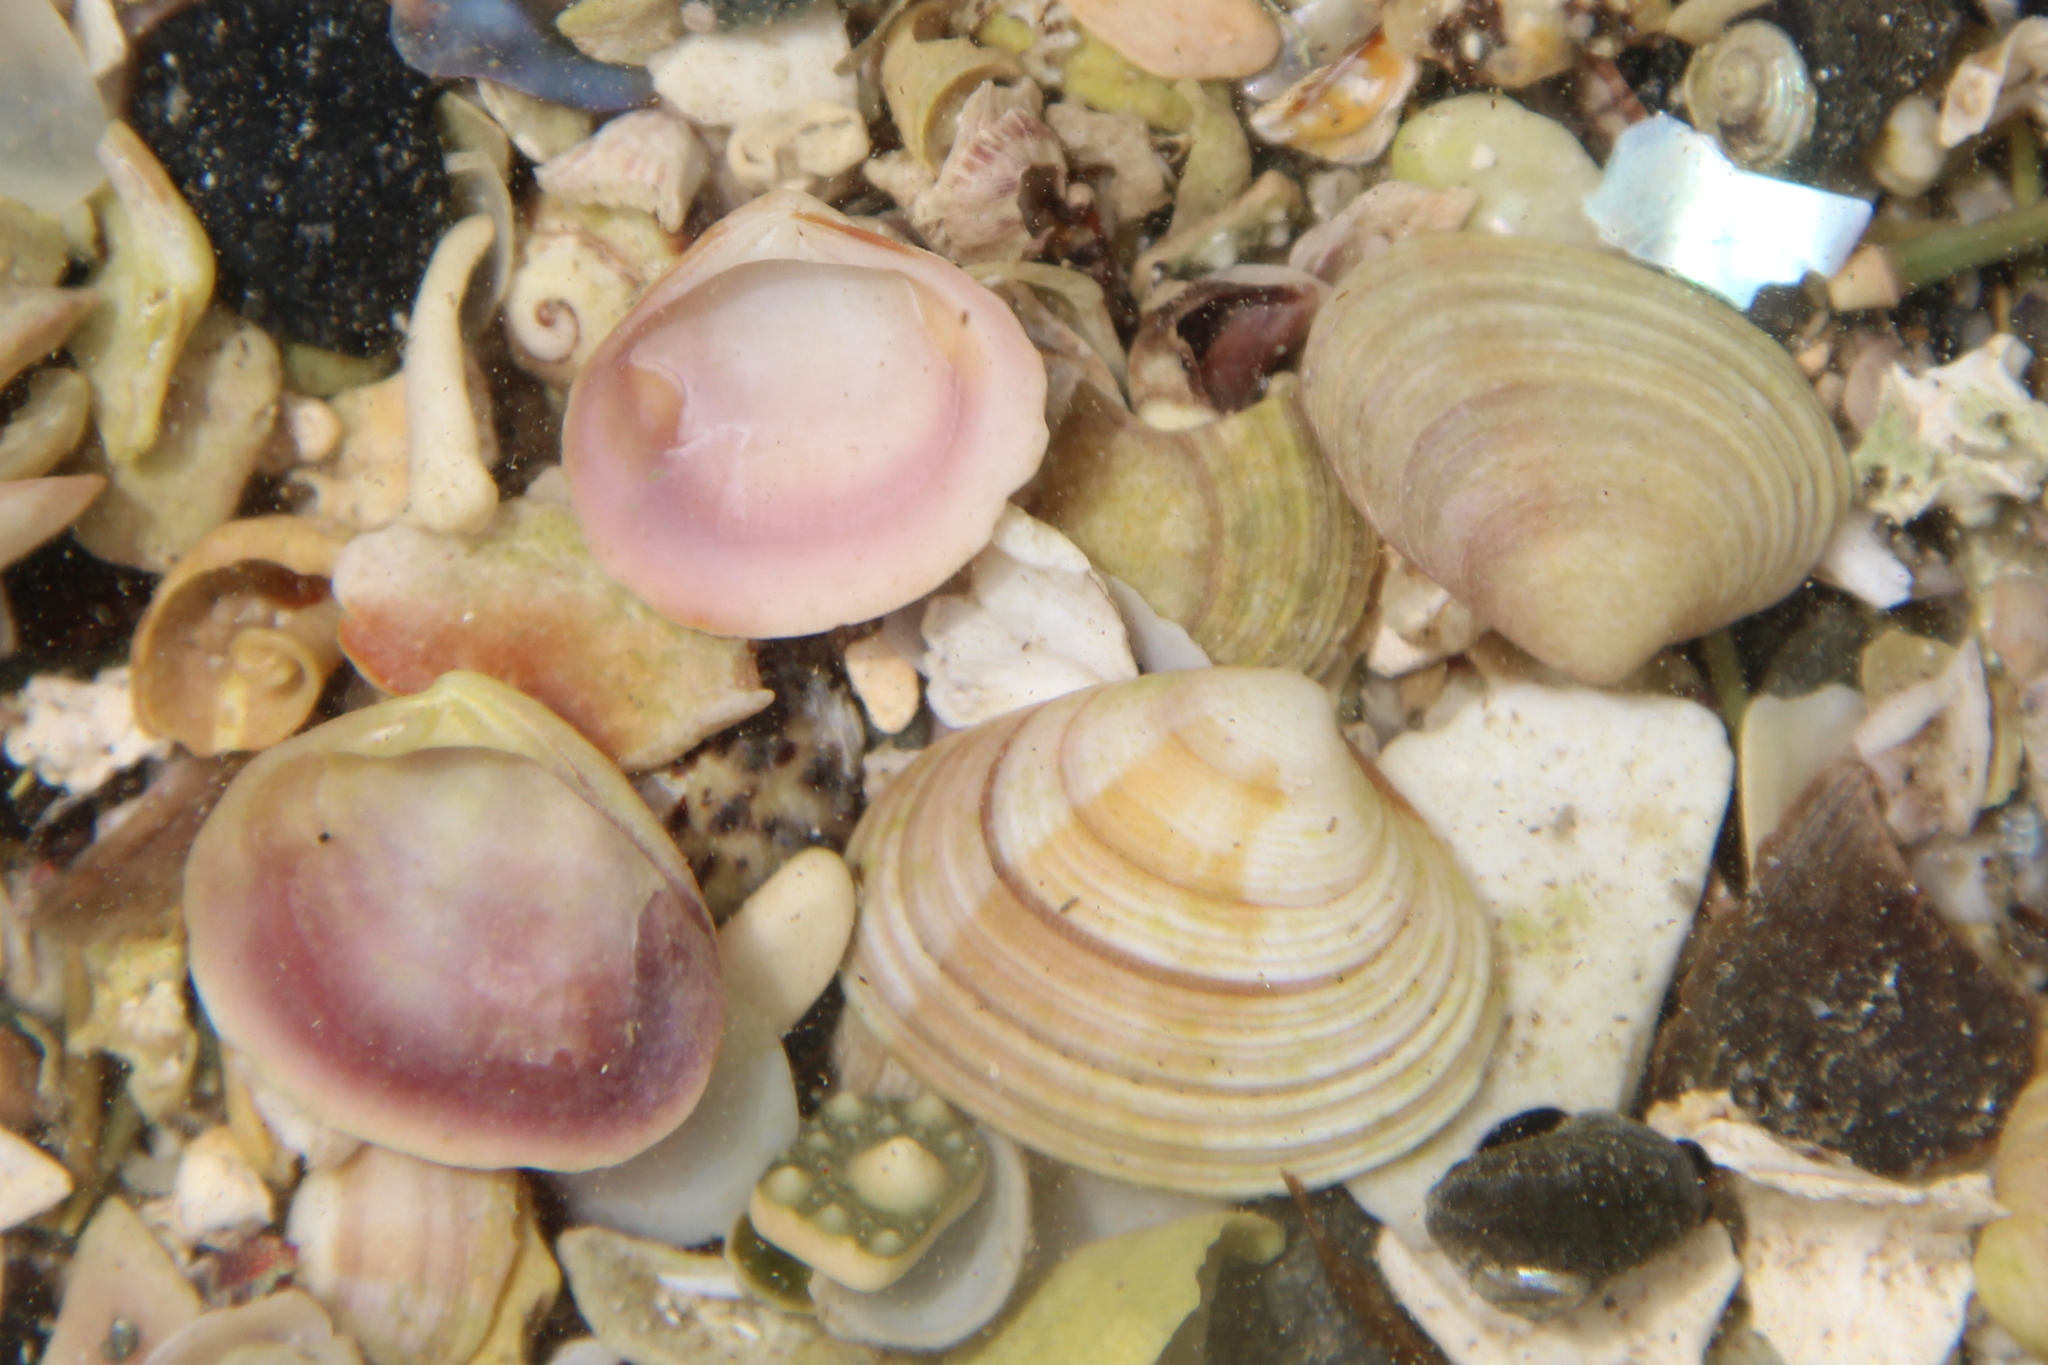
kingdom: Animalia
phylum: Mollusca
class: Bivalvia
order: Venerida
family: Veneridae
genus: Tawera
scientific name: Tawera spissa
